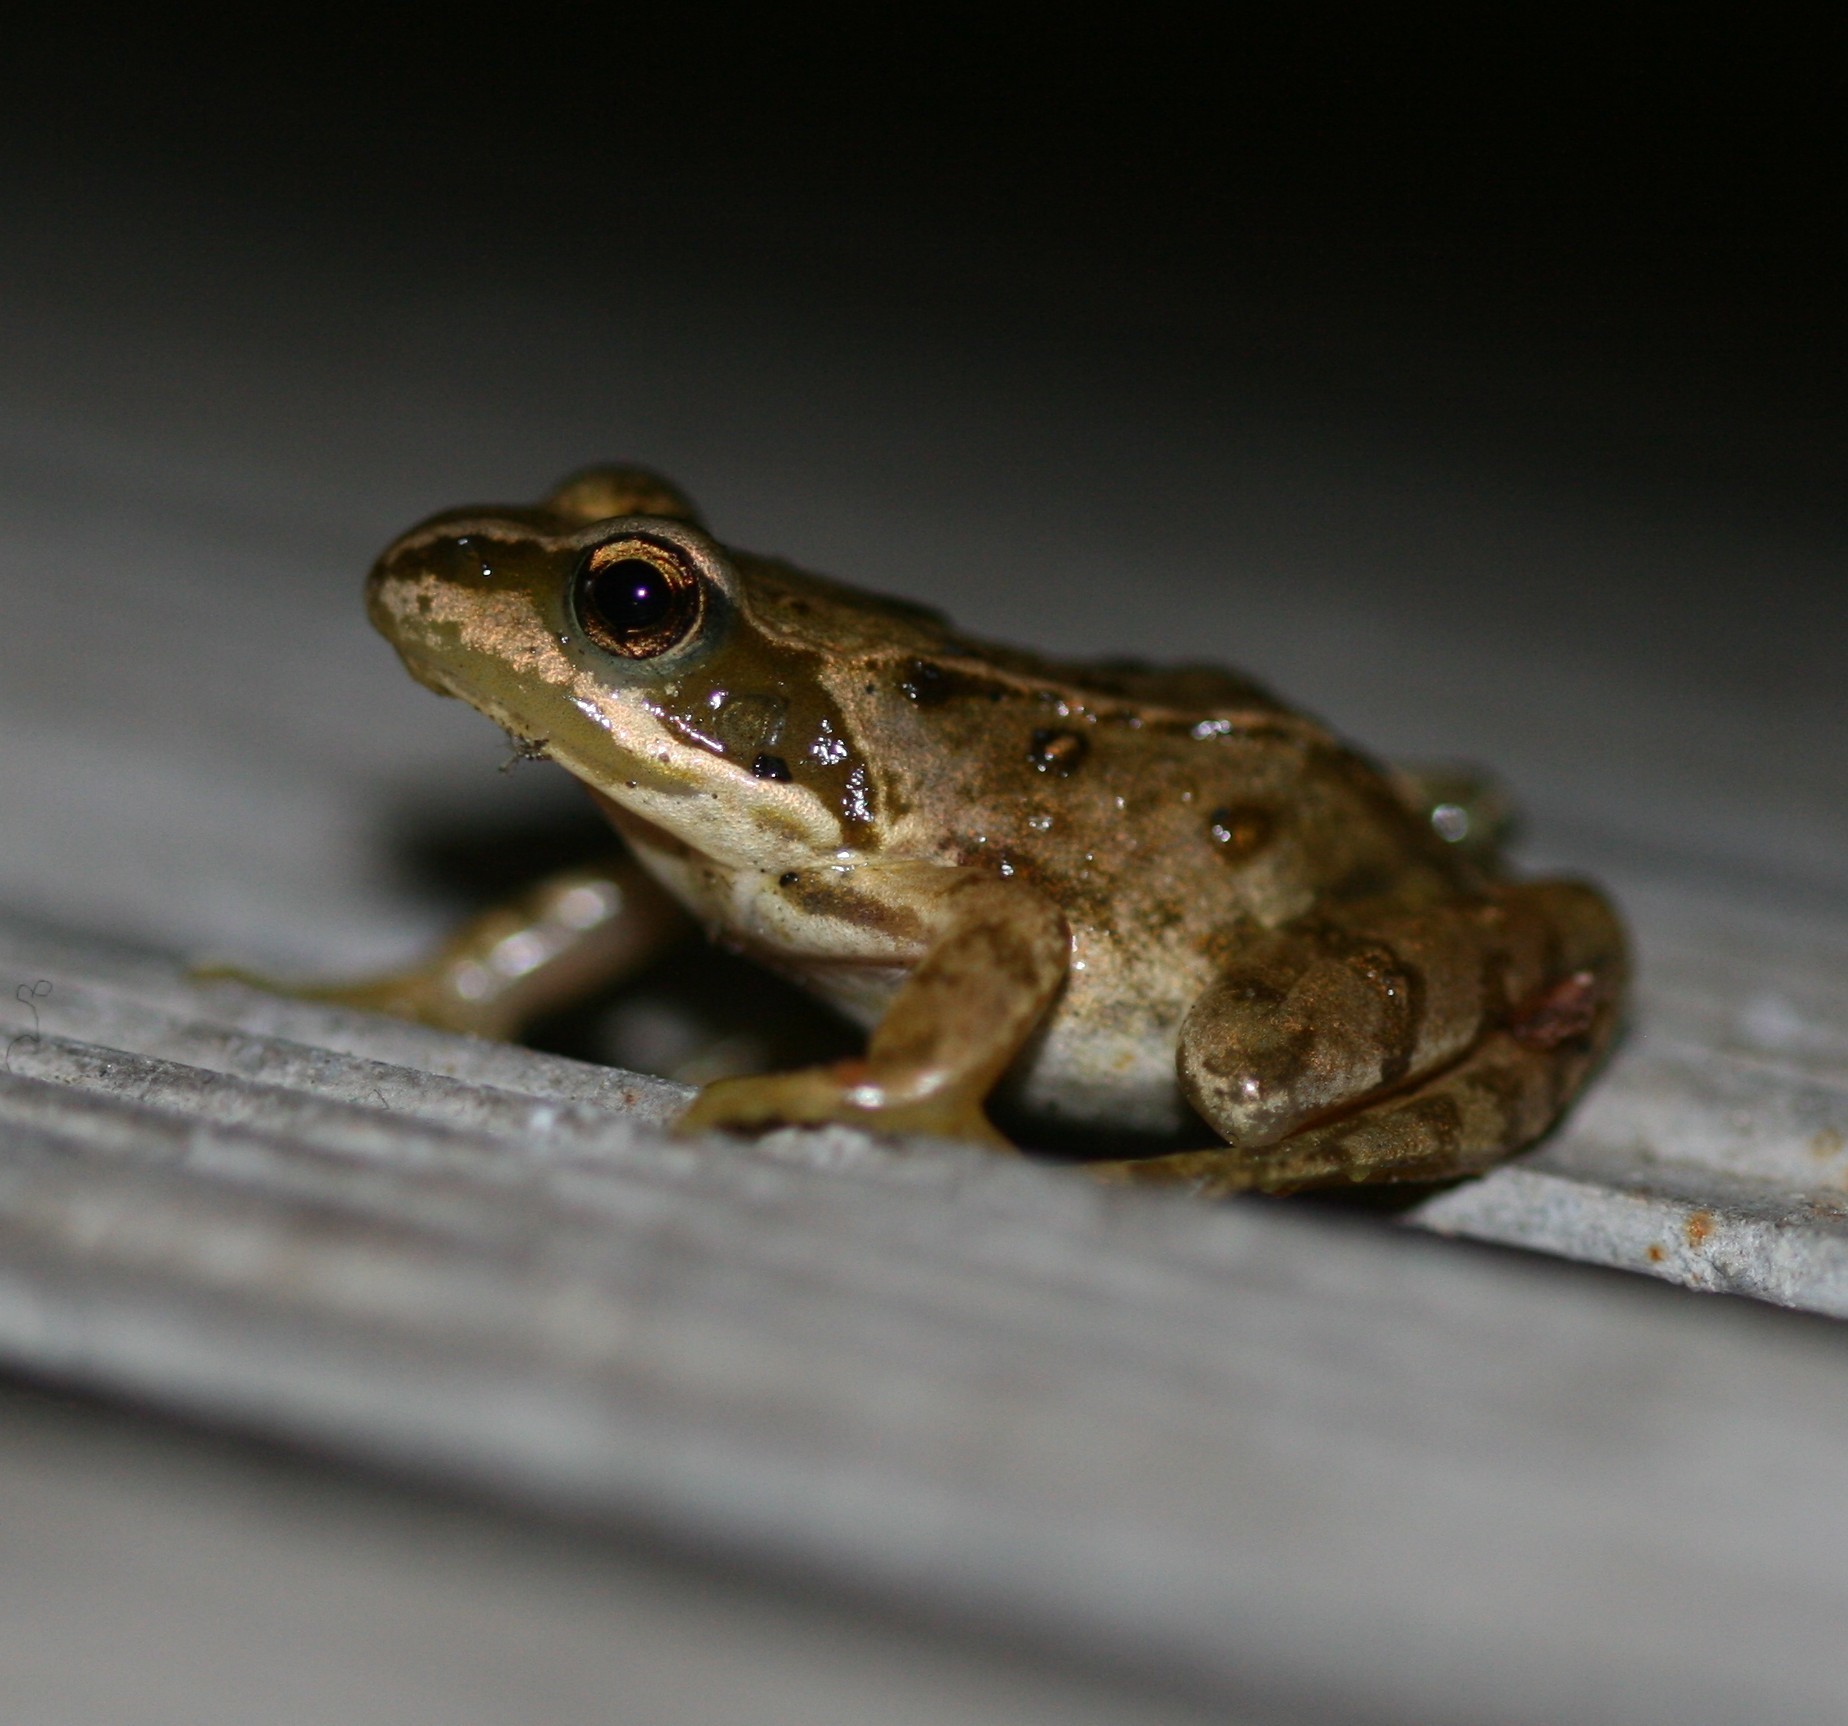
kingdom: Animalia
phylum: Chordata
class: Amphibia
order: Anura
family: Ranidae
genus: Rana
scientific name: Rana temporaria
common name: Common frog
